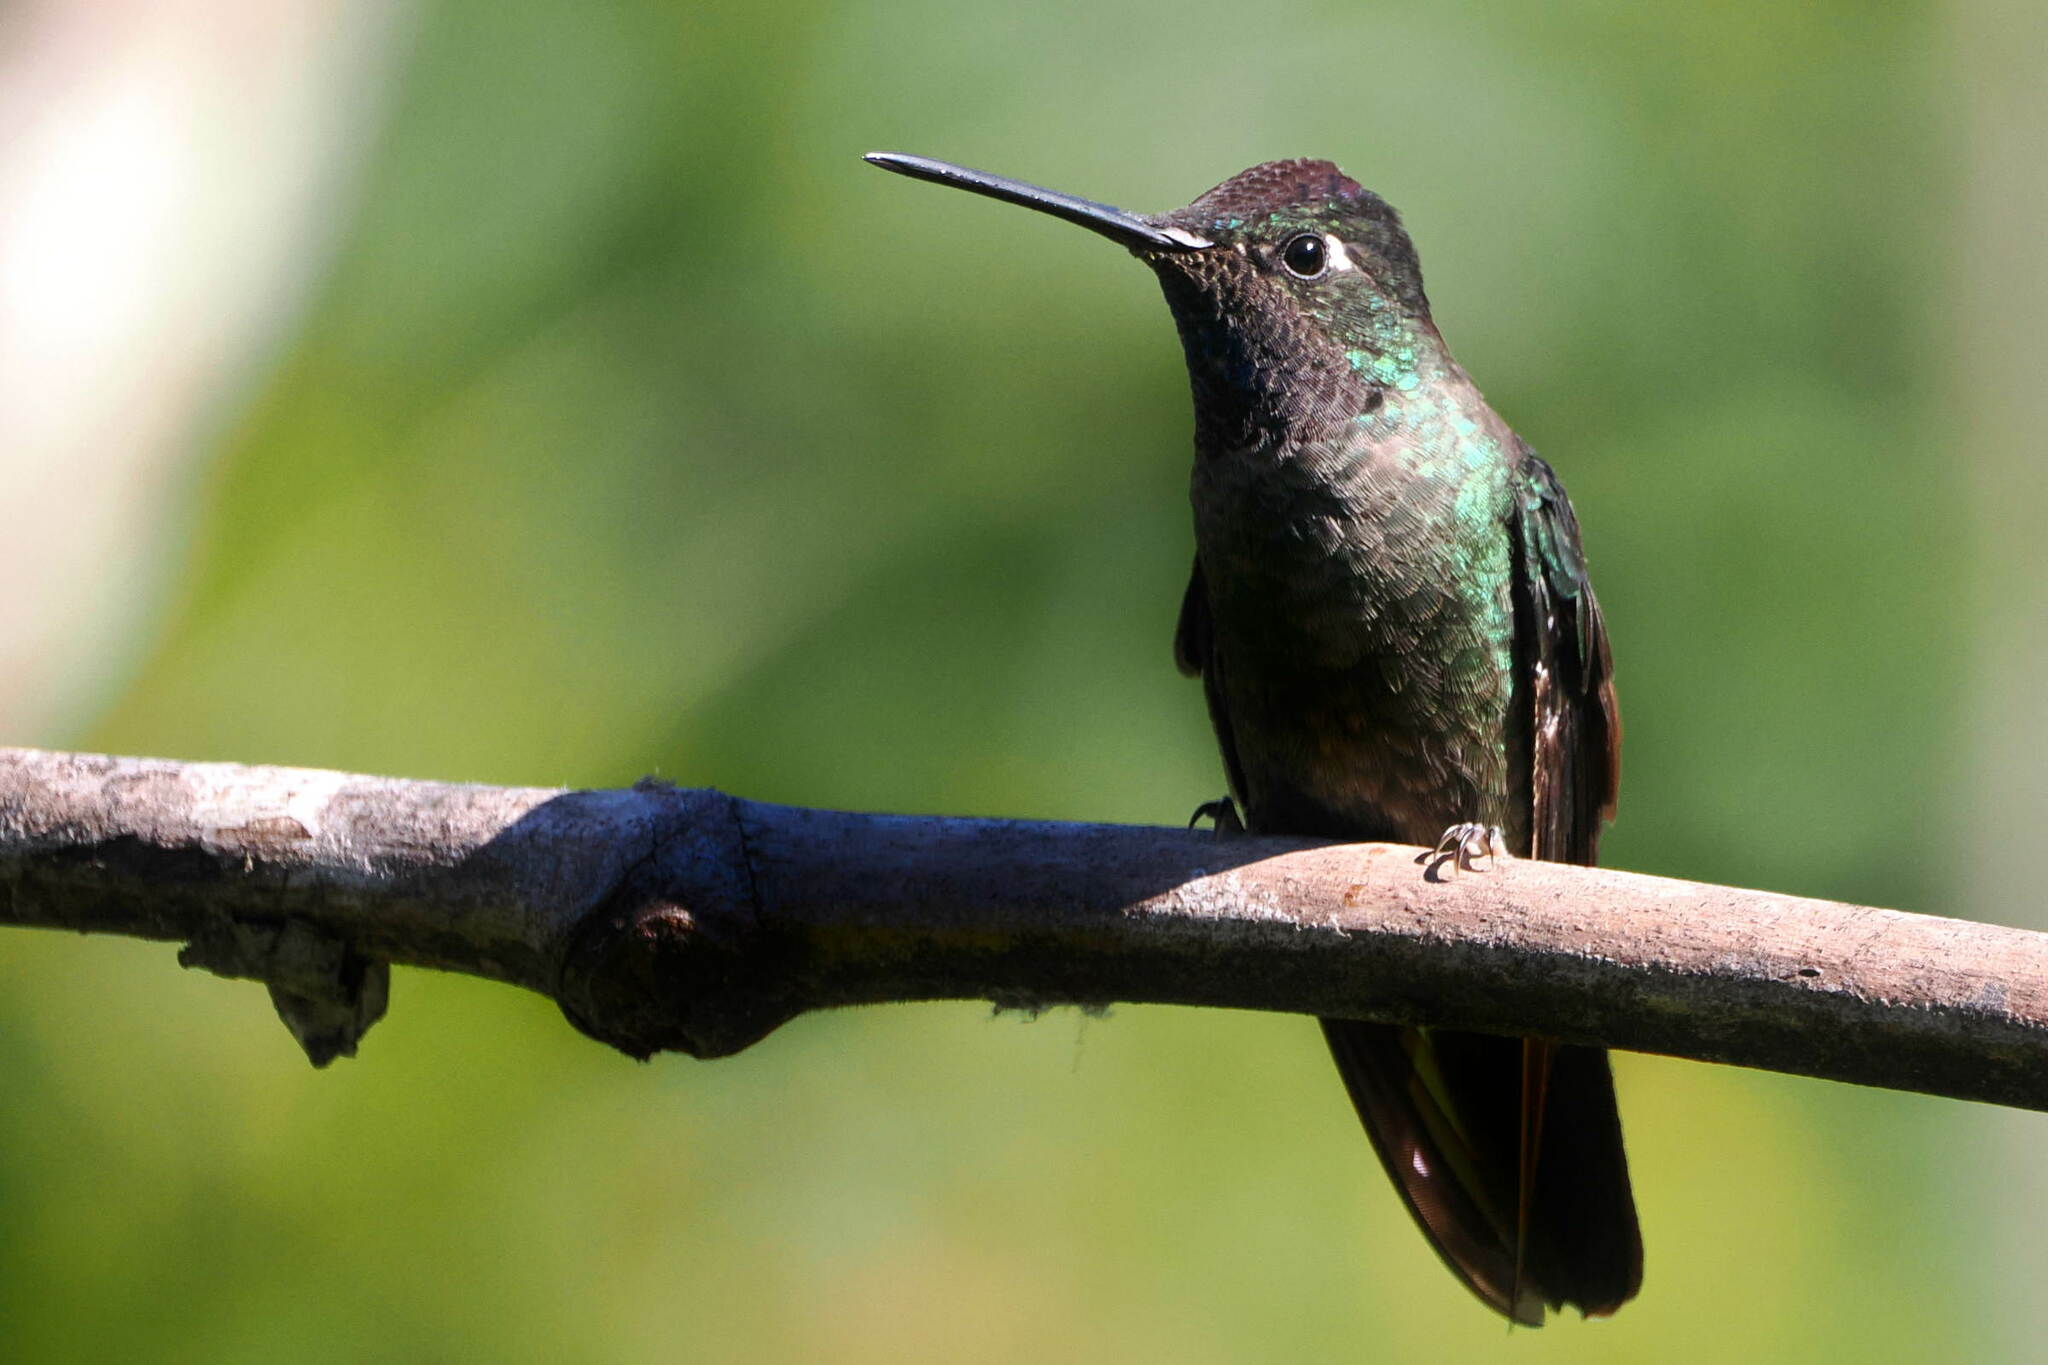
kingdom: Animalia
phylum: Chordata
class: Aves
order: Apodiformes
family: Trochilidae
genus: Eugenes
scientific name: Eugenes spectabilis
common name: Talamanca hummingbird
